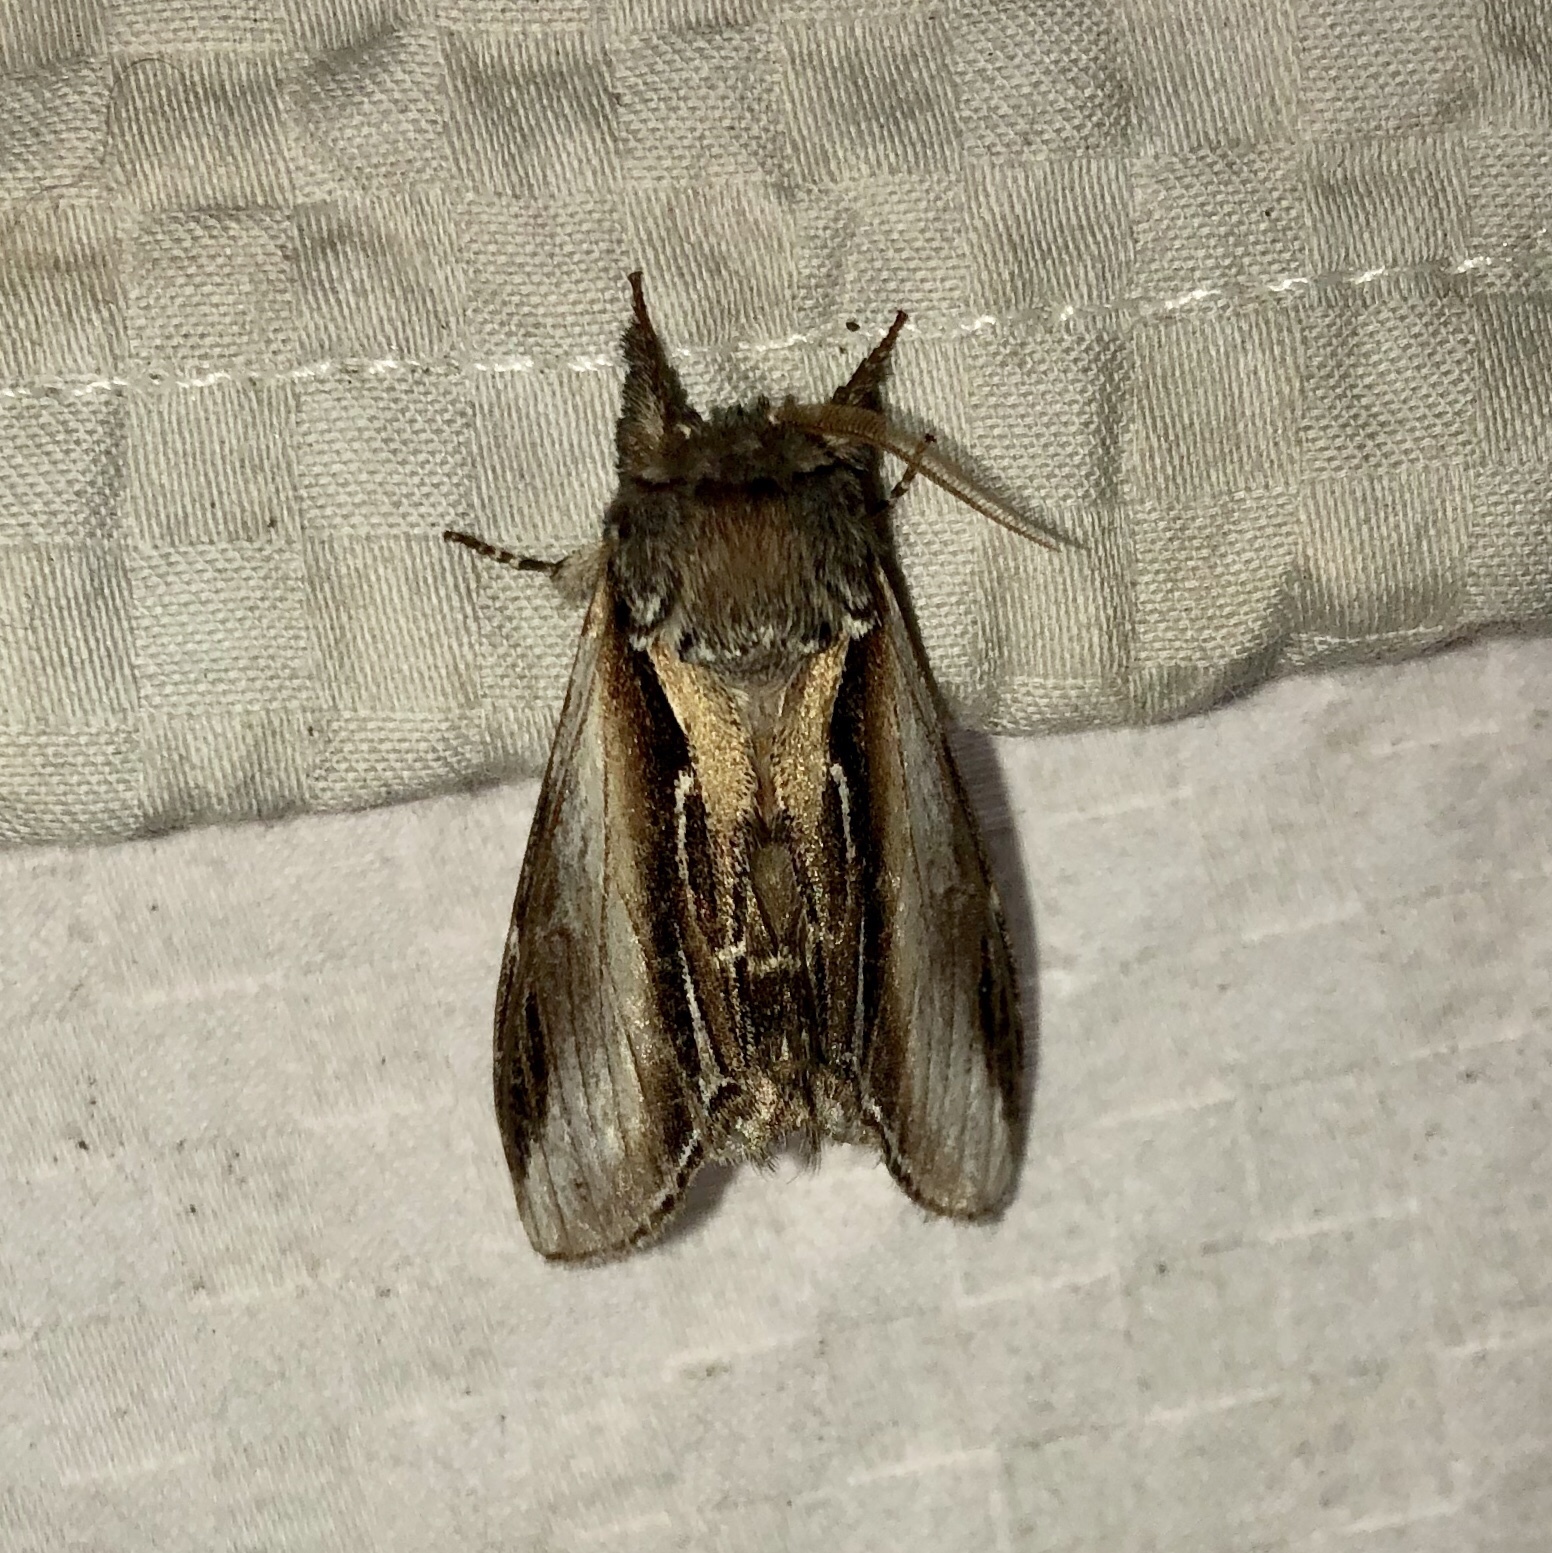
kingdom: Animalia
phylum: Arthropoda
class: Insecta
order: Lepidoptera
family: Notodontidae
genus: Pheosia
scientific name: Pheosia rimosa
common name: Black-rimmed prominent
